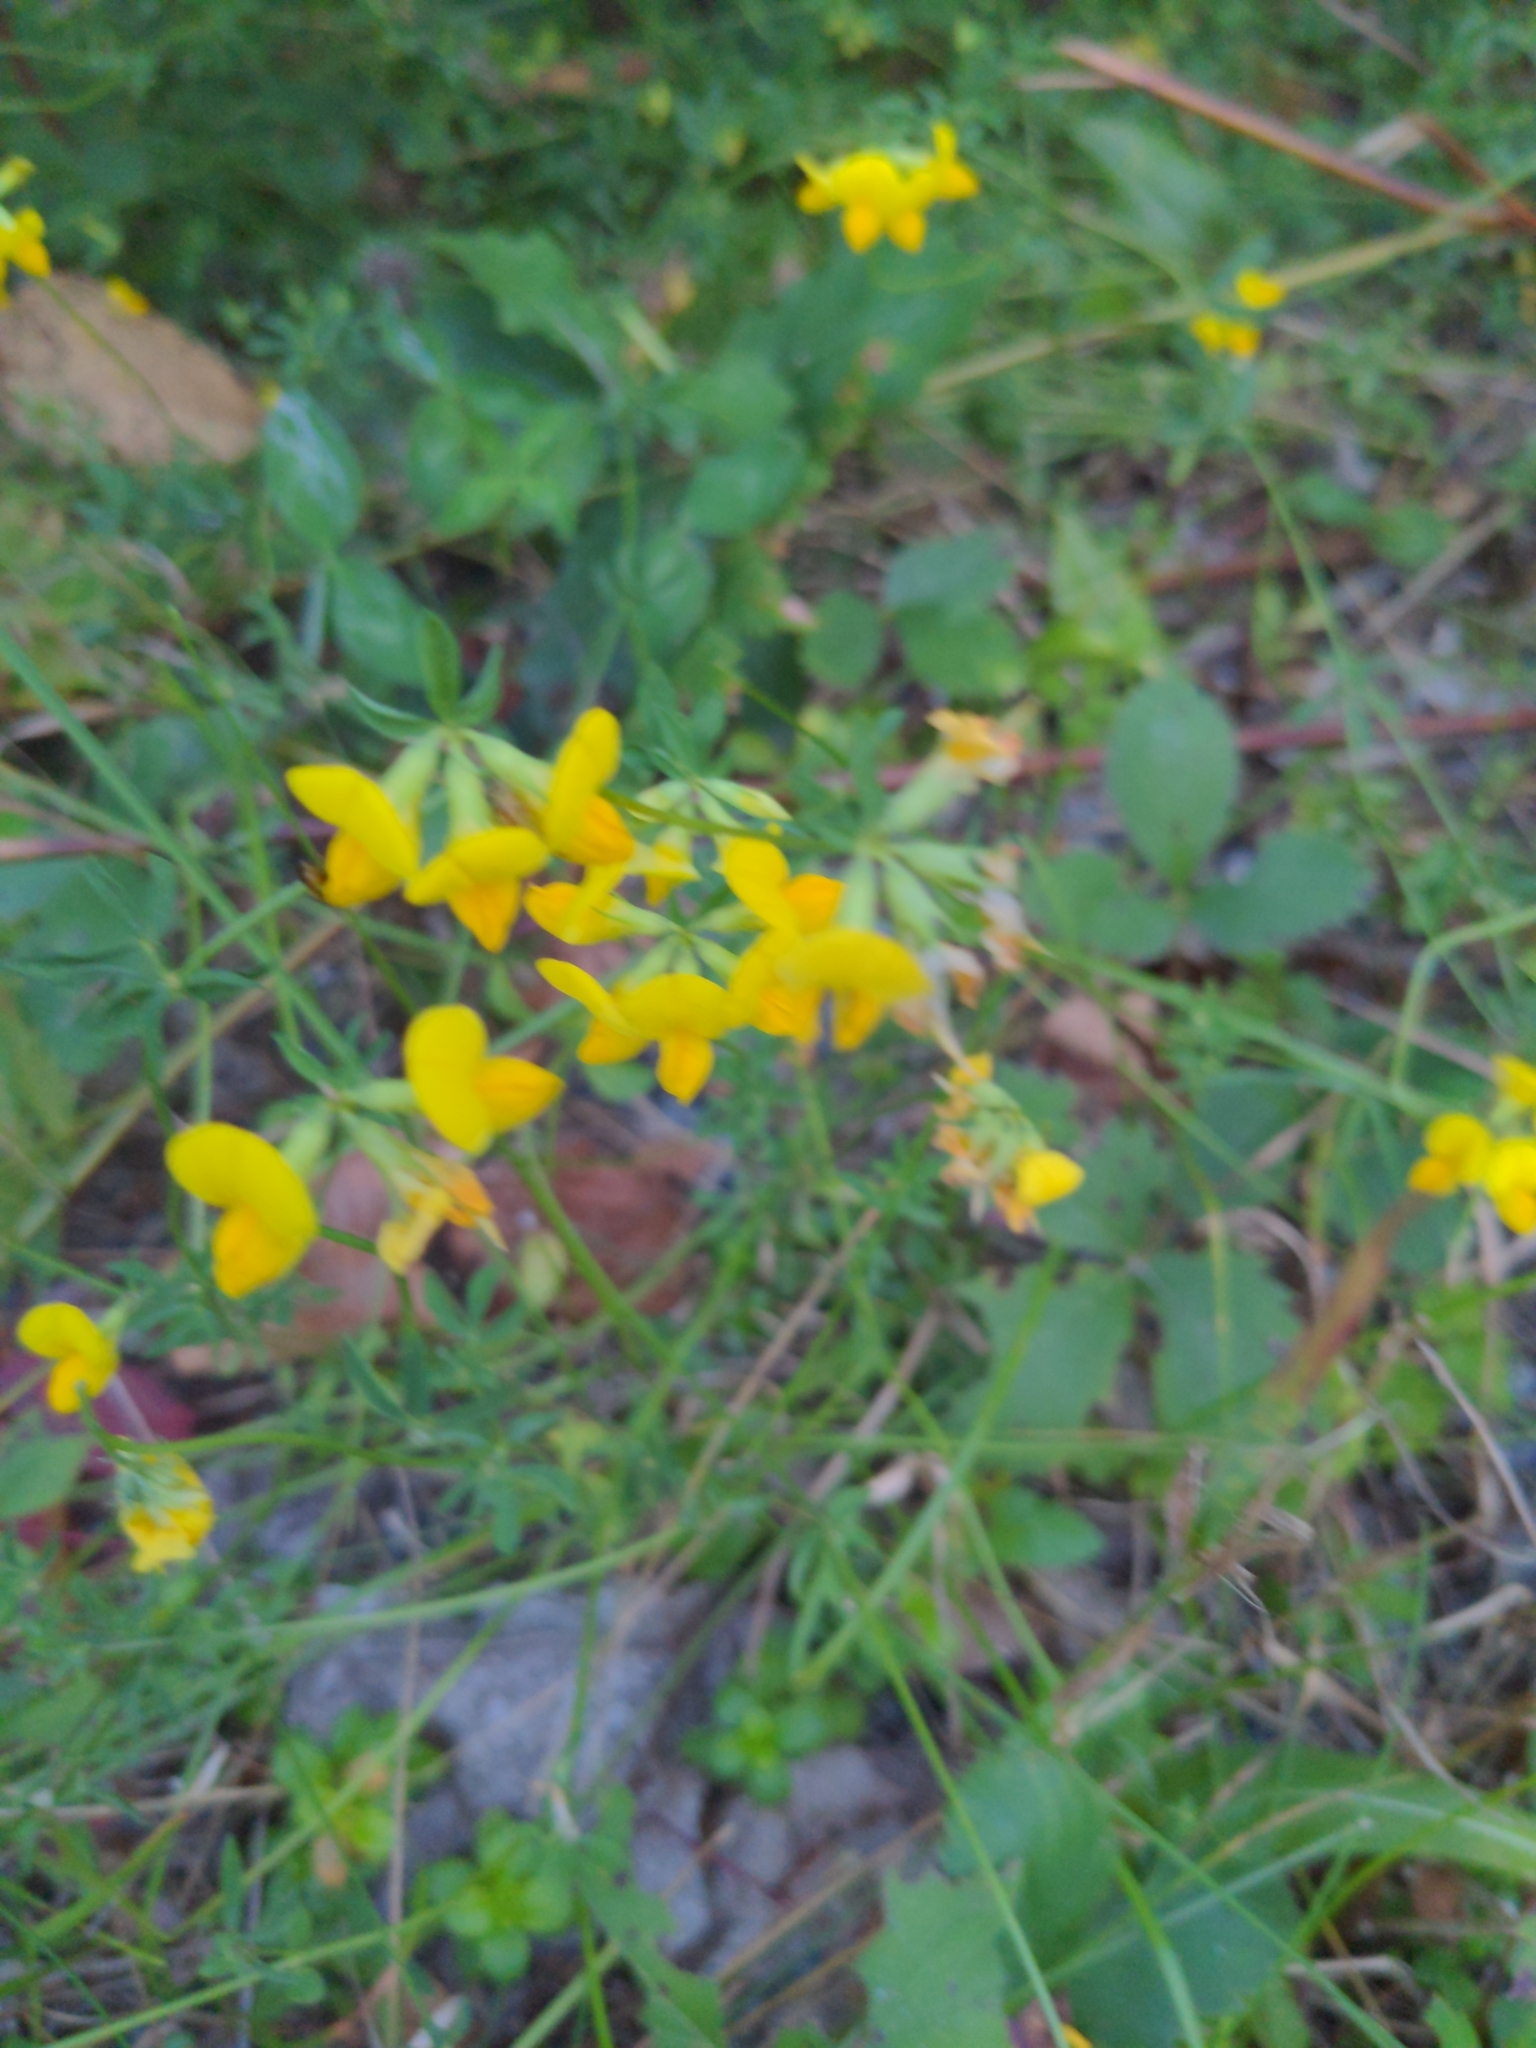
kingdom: Plantae
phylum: Tracheophyta
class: Magnoliopsida
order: Fabales
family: Fabaceae
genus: Lotus
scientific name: Lotus corniculatus
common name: Common bird's-foot-trefoil
